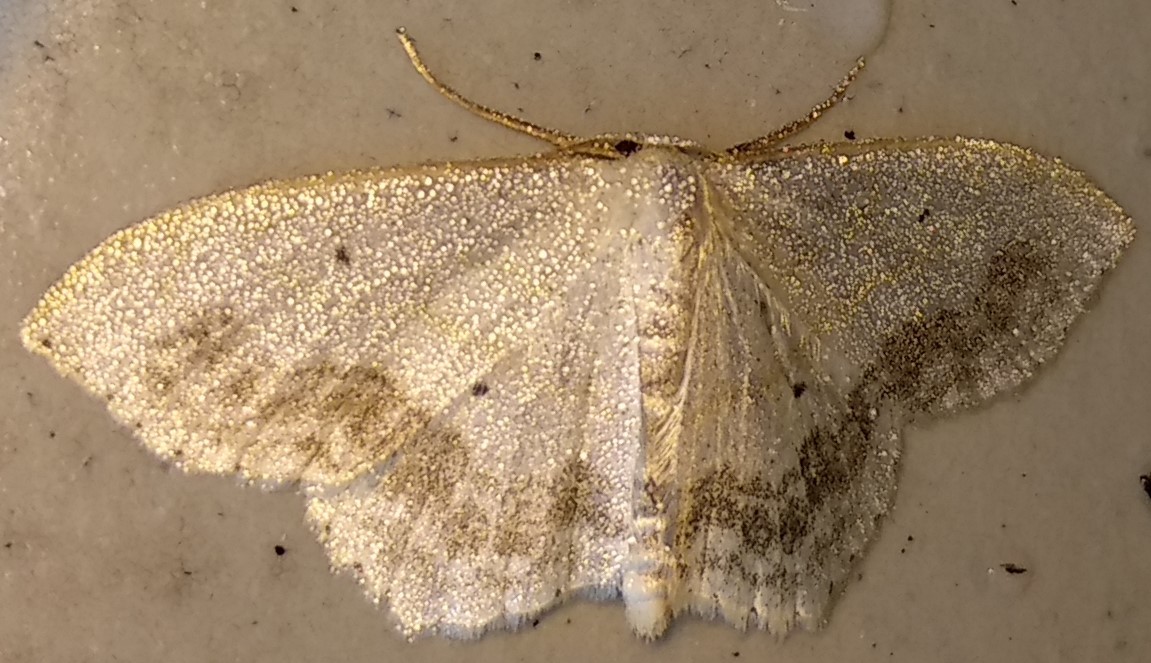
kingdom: Animalia
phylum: Arthropoda
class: Insecta
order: Lepidoptera
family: Geometridae
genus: Scopula
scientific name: Scopula limboundata
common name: Large lace border
